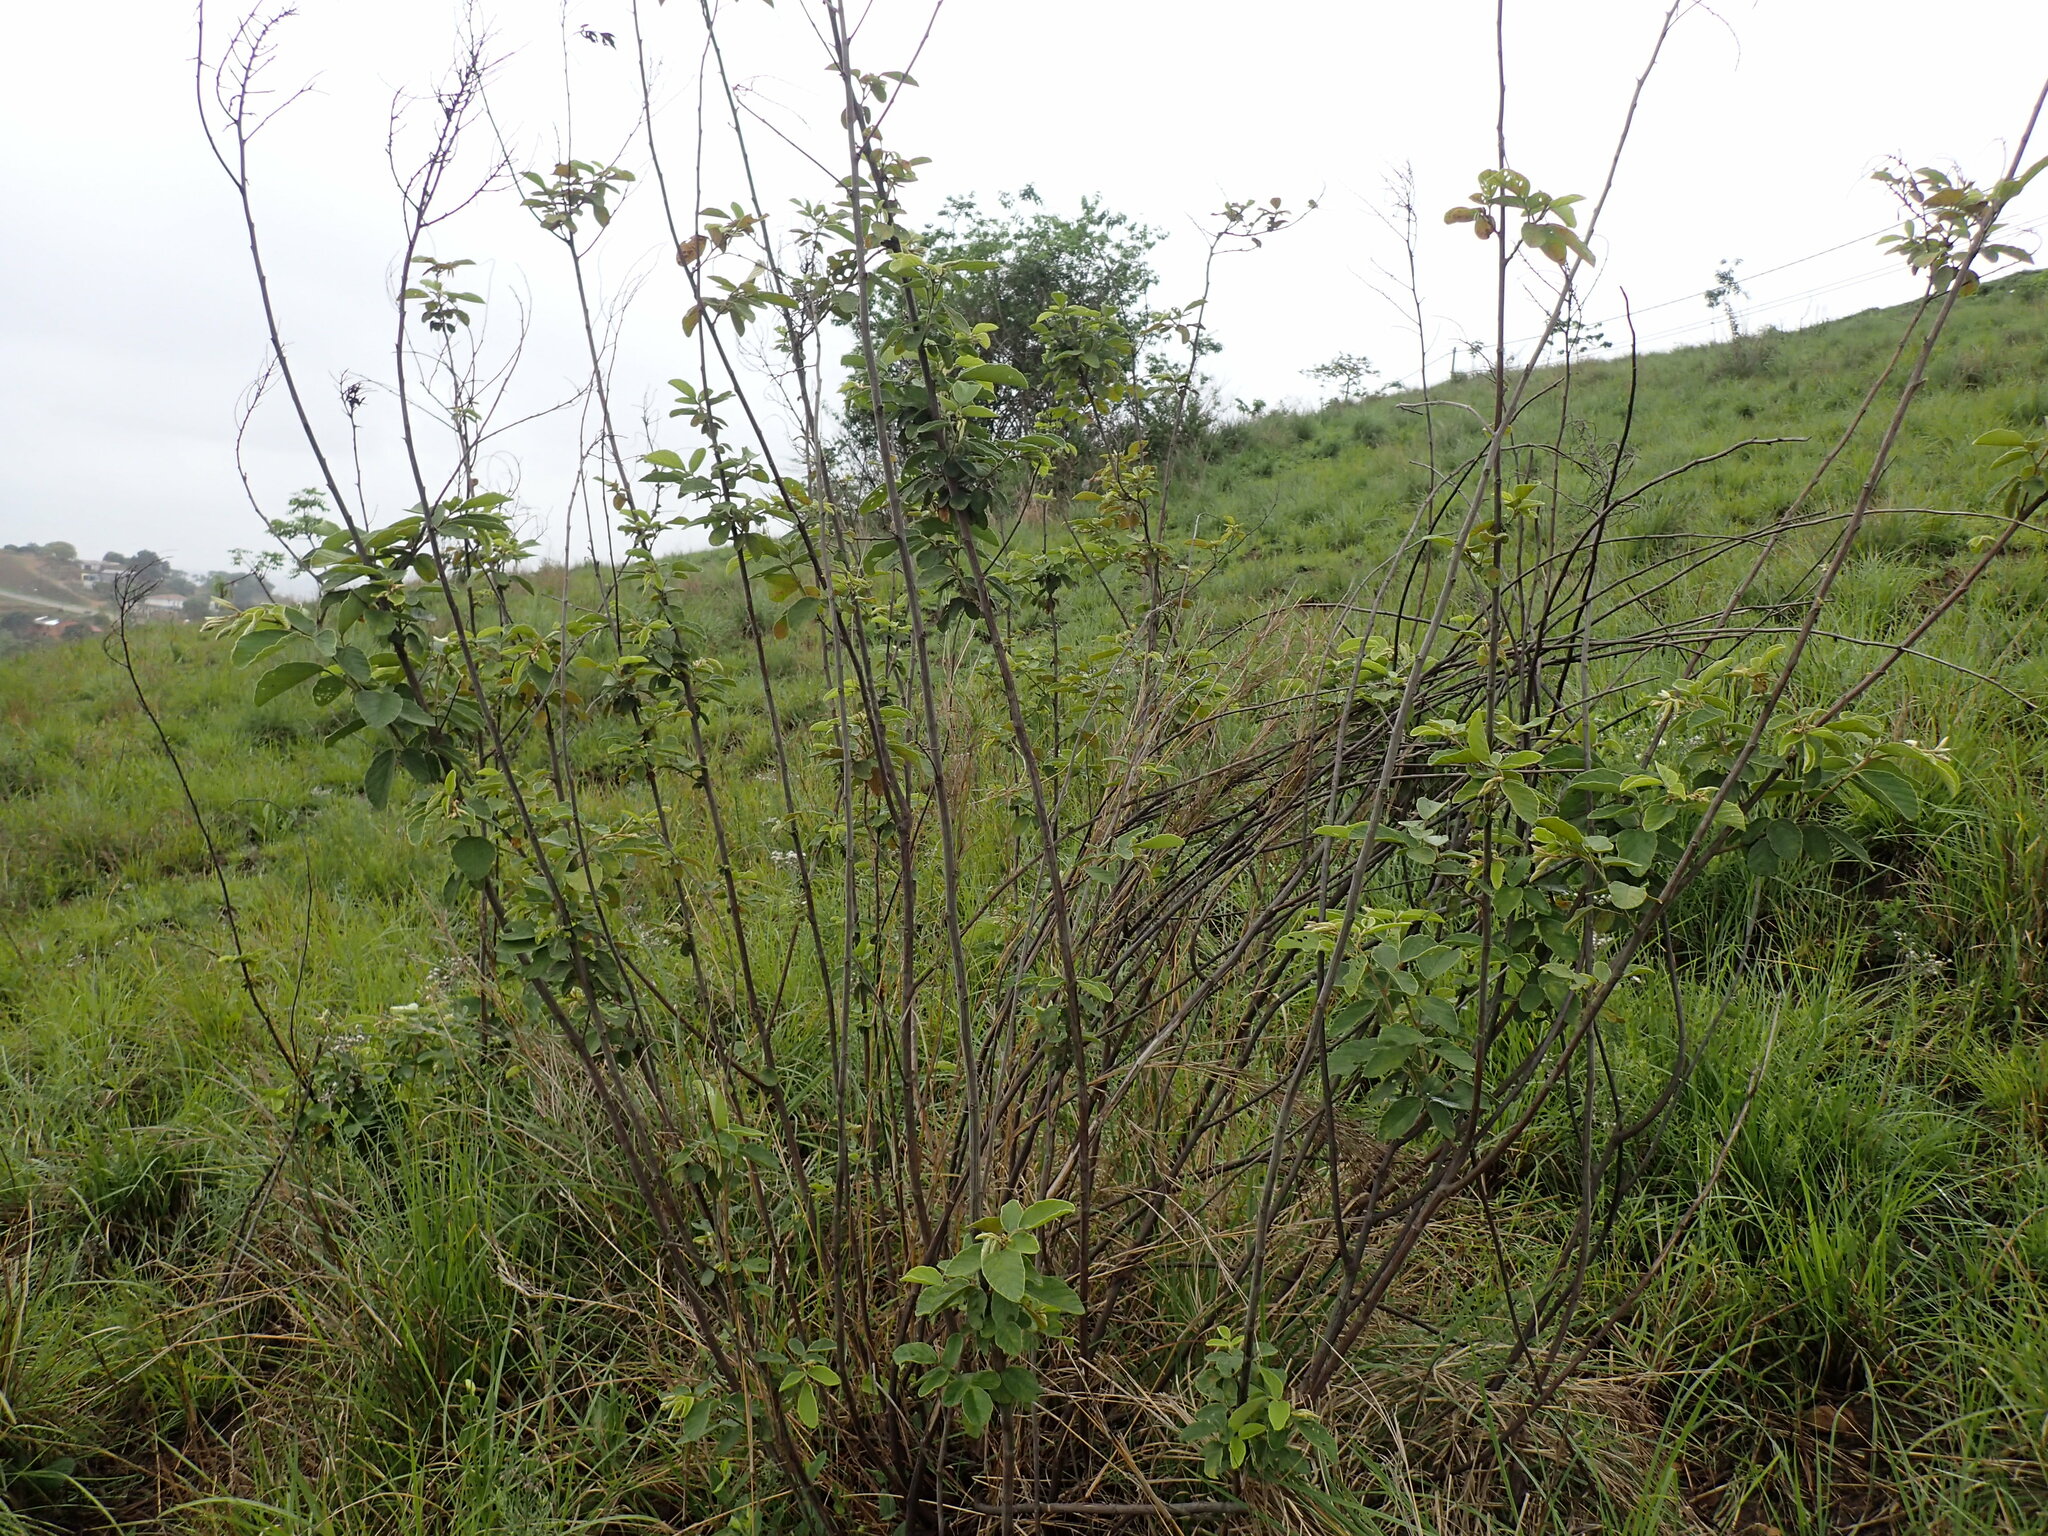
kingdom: Plantae
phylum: Tracheophyta
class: Magnoliopsida
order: Fabales
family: Fabaceae
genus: Pseudarthria
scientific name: Pseudarthria hookeri
